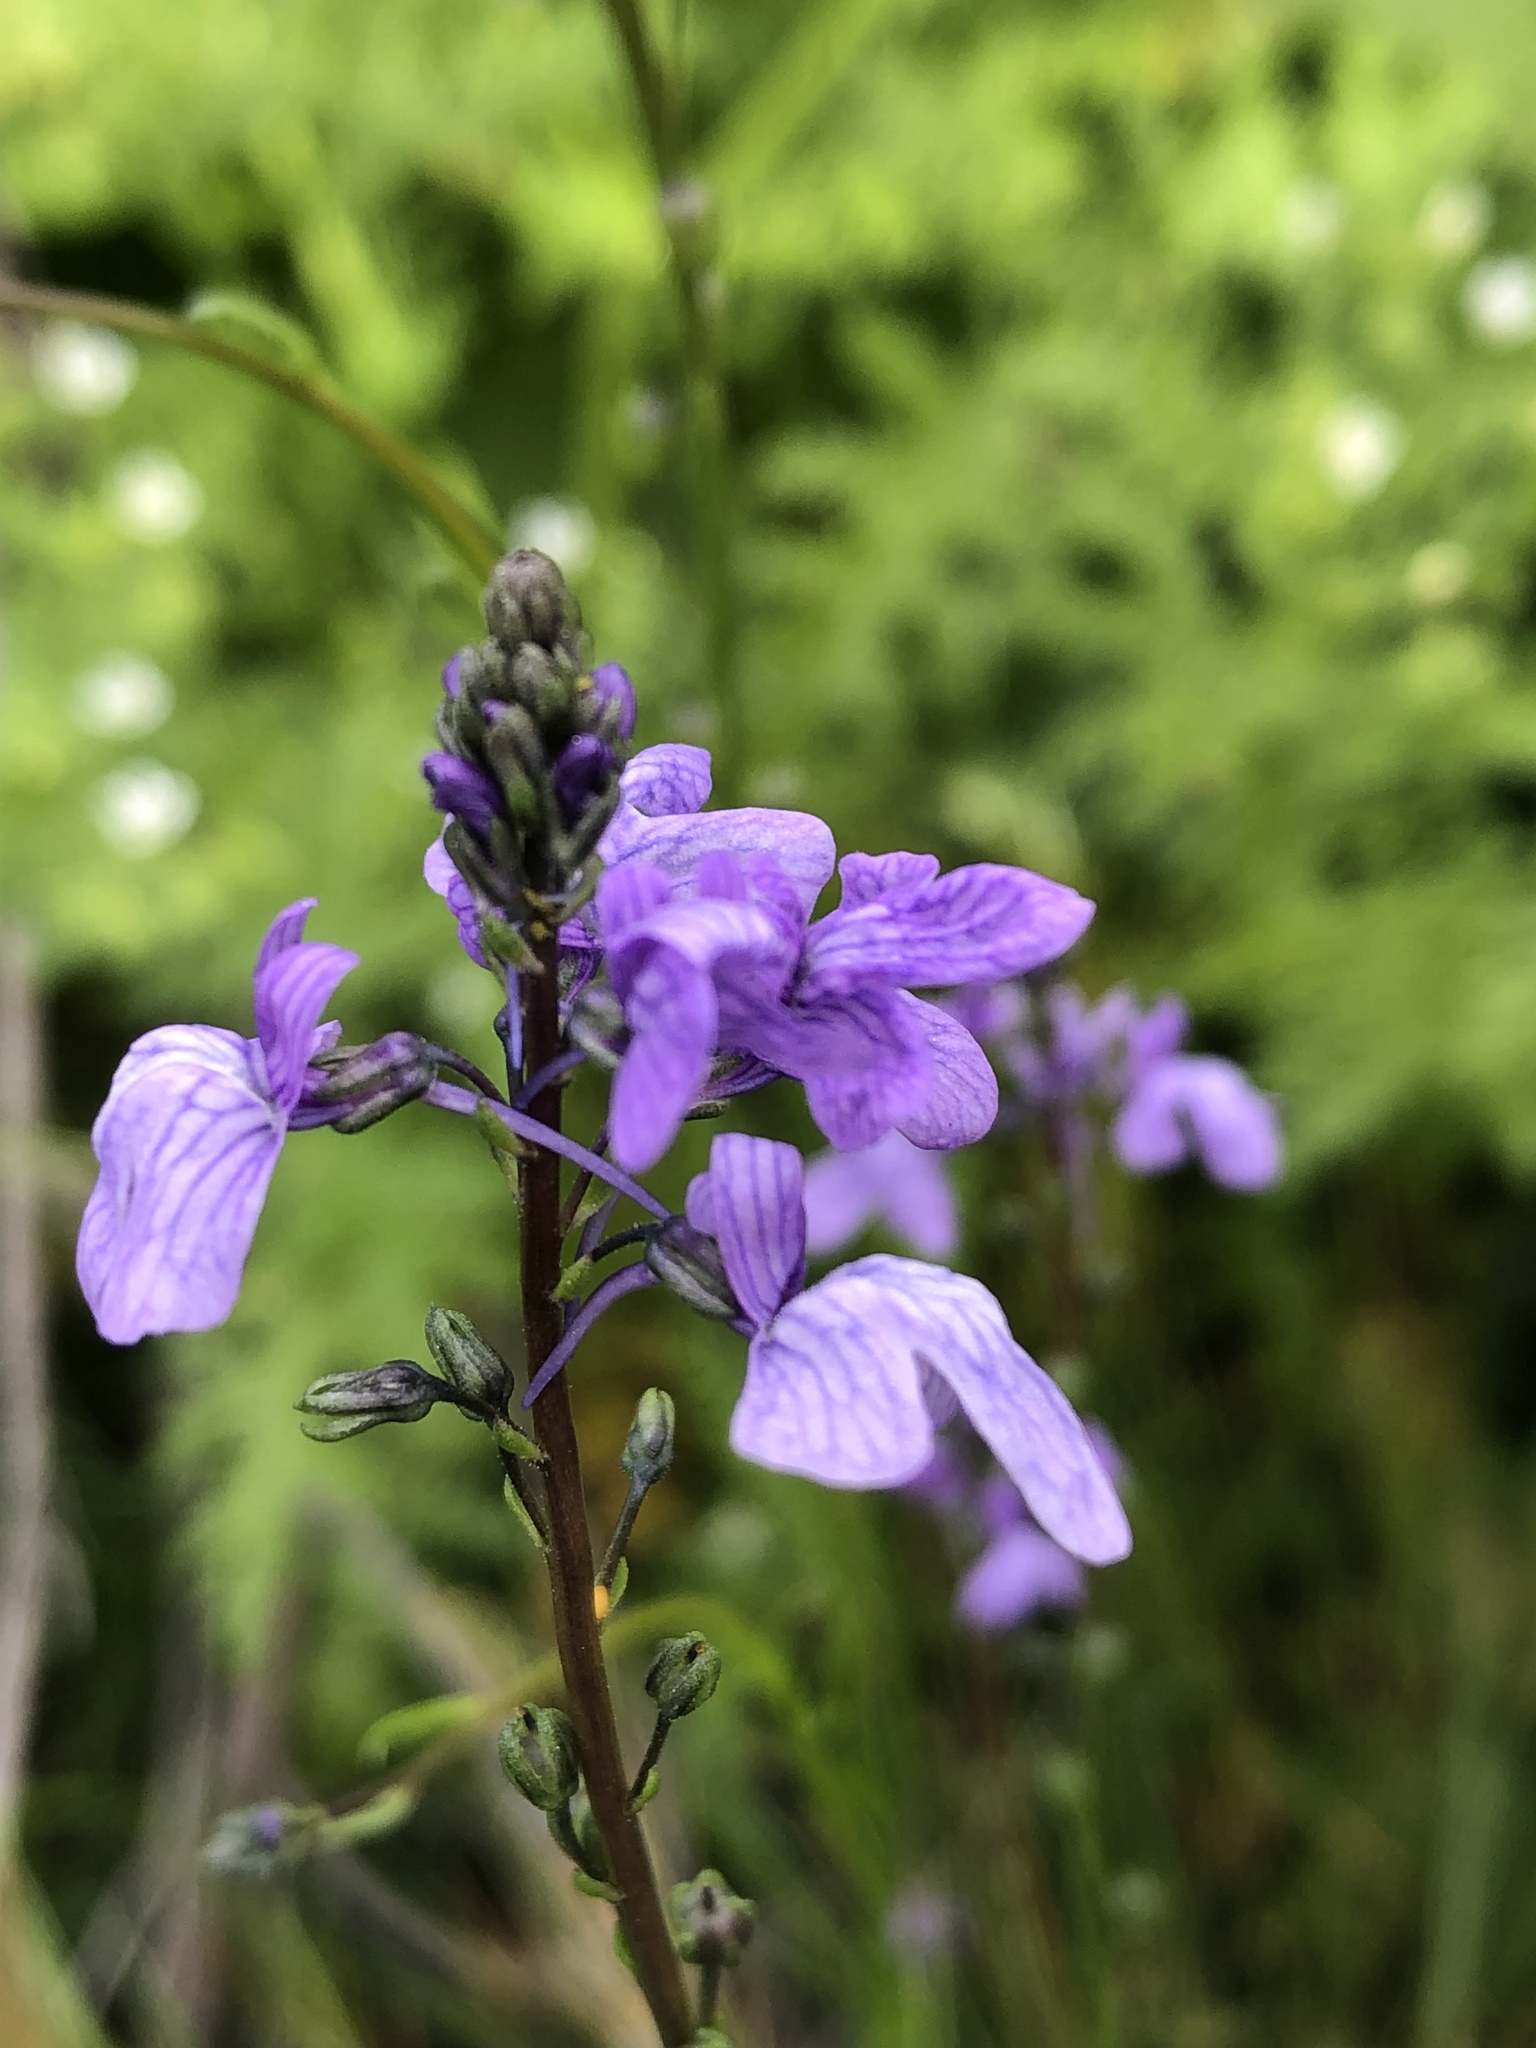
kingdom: Plantae
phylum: Tracheophyta
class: Magnoliopsida
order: Lamiales
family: Plantaginaceae
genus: Nuttallanthus
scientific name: Nuttallanthus texanus
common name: Texas toadflax
